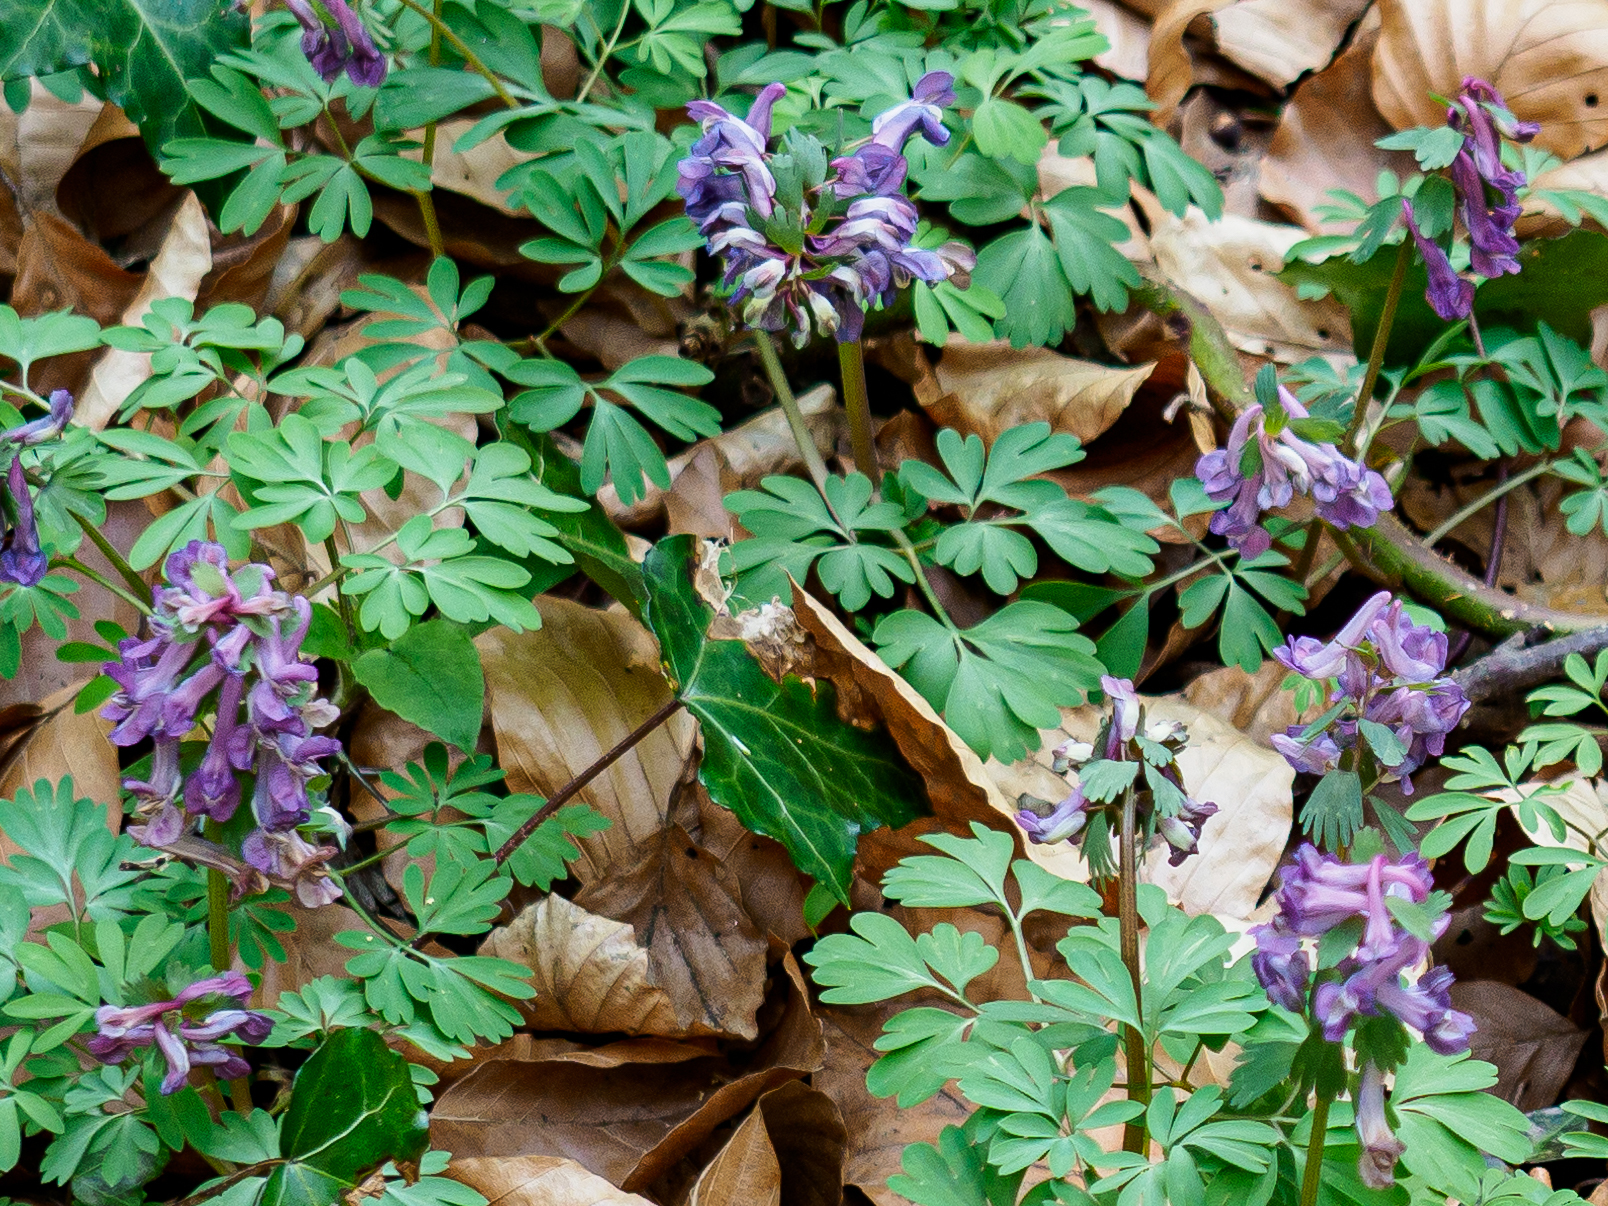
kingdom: Plantae
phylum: Tracheophyta
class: Magnoliopsida
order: Ranunculales
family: Papaveraceae
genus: Corydalis
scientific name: Corydalis solida
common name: Bird-in-a-bush
